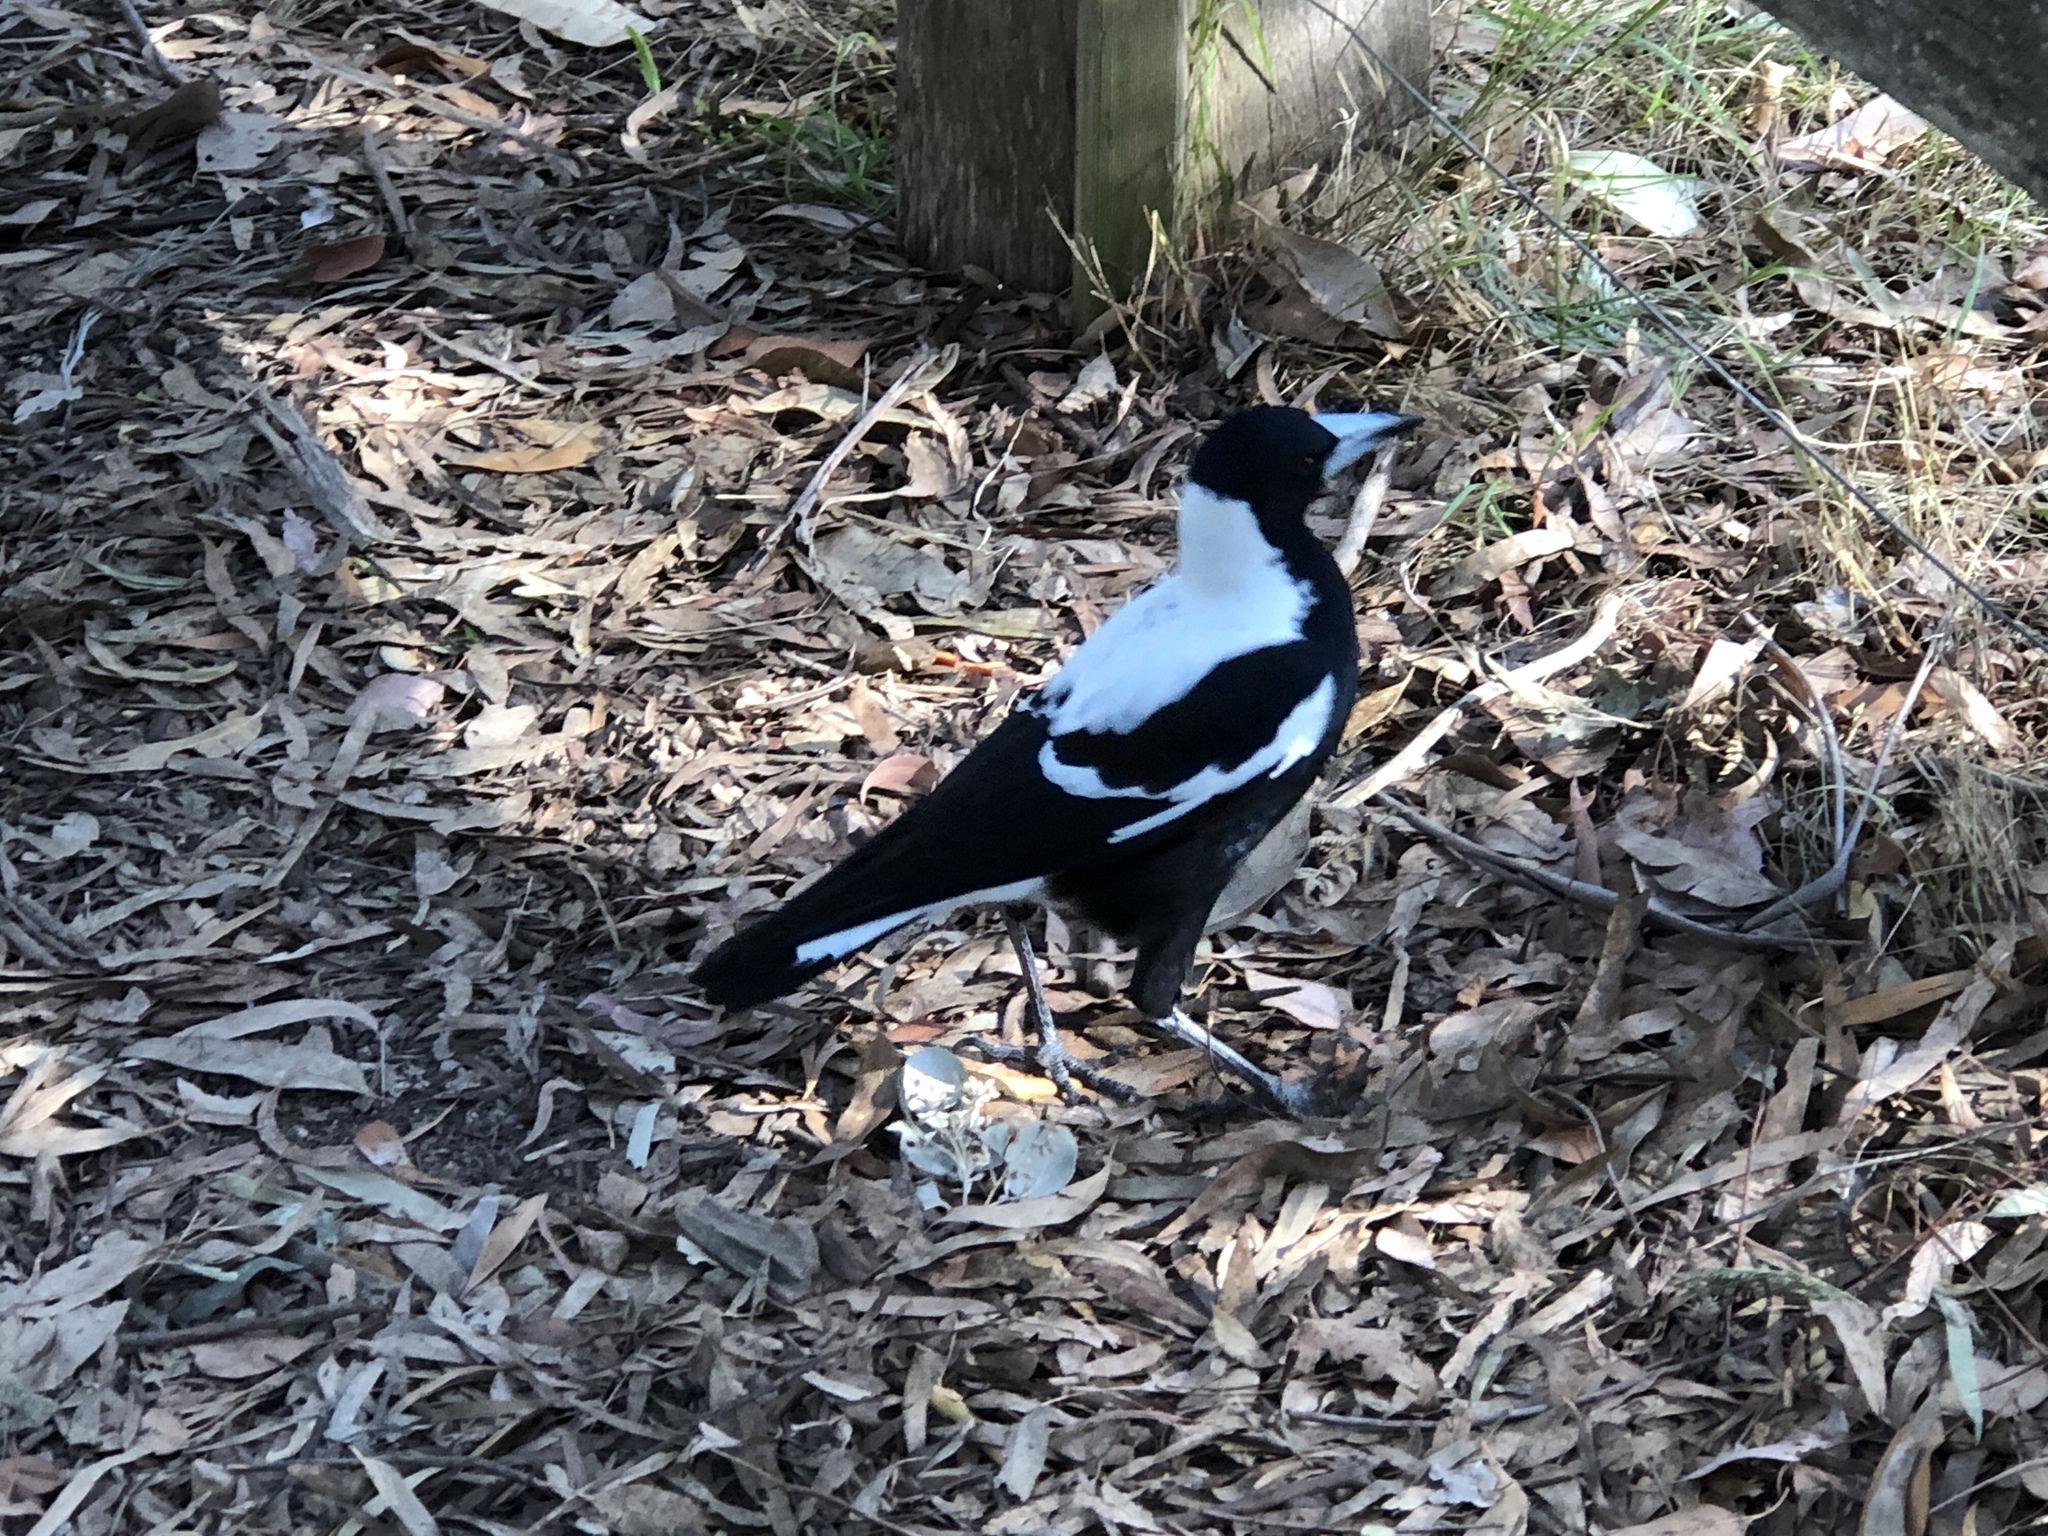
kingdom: Animalia
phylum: Chordata
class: Aves
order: Passeriformes
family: Cracticidae
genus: Gymnorhina
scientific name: Gymnorhina tibicen
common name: Australian magpie
